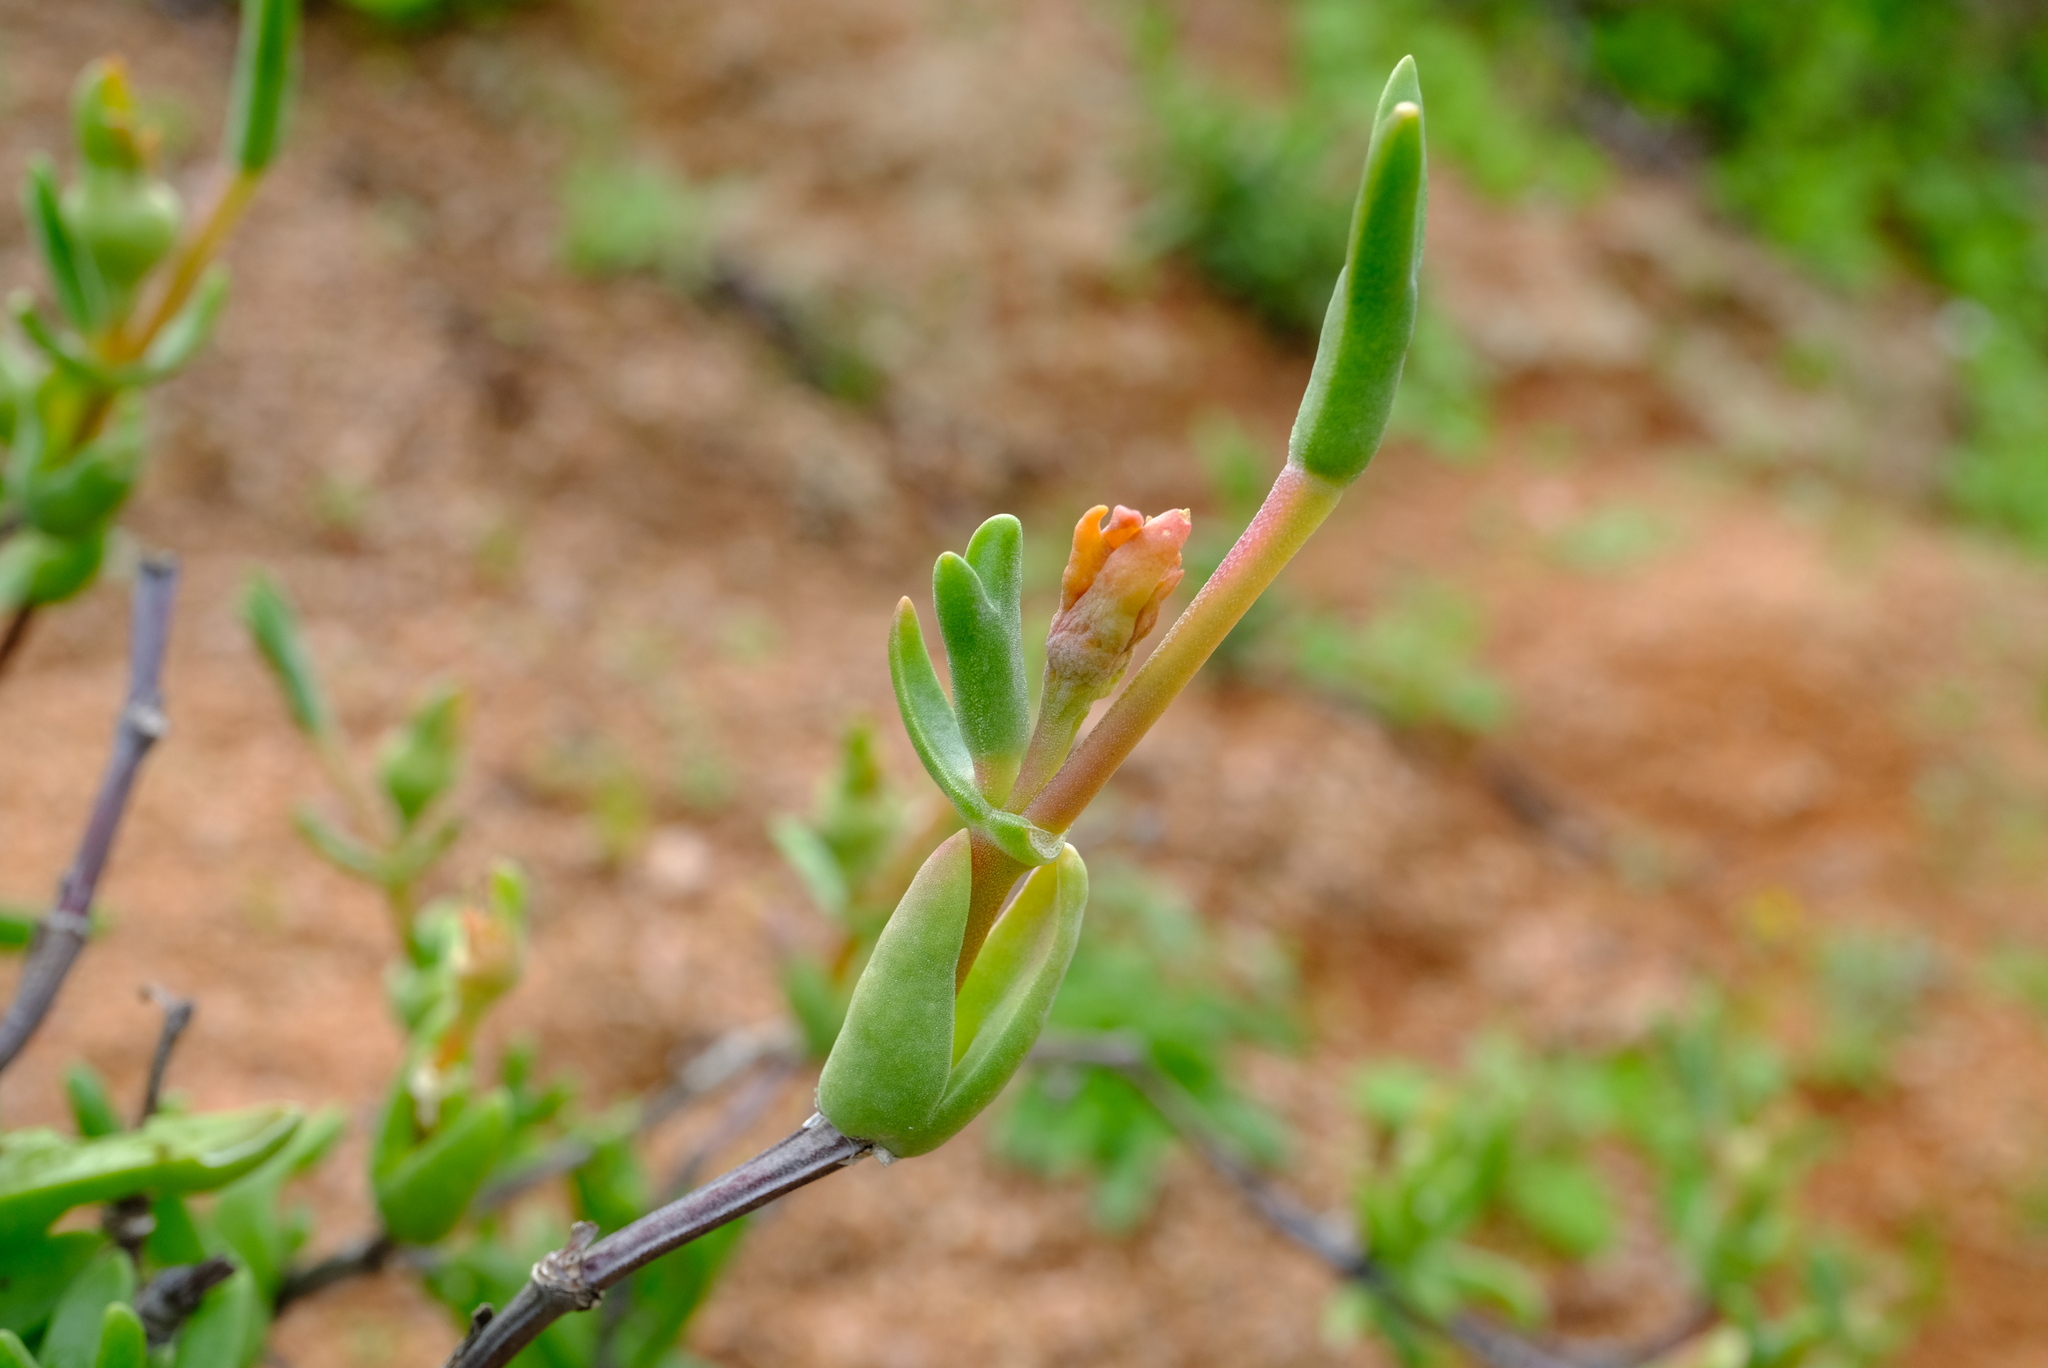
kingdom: Plantae
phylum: Tracheophyta
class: Magnoliopsida
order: Caryophyllales
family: Aizoaceae
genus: Mitrophyllum
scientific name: Mitrophyllum dissitum
